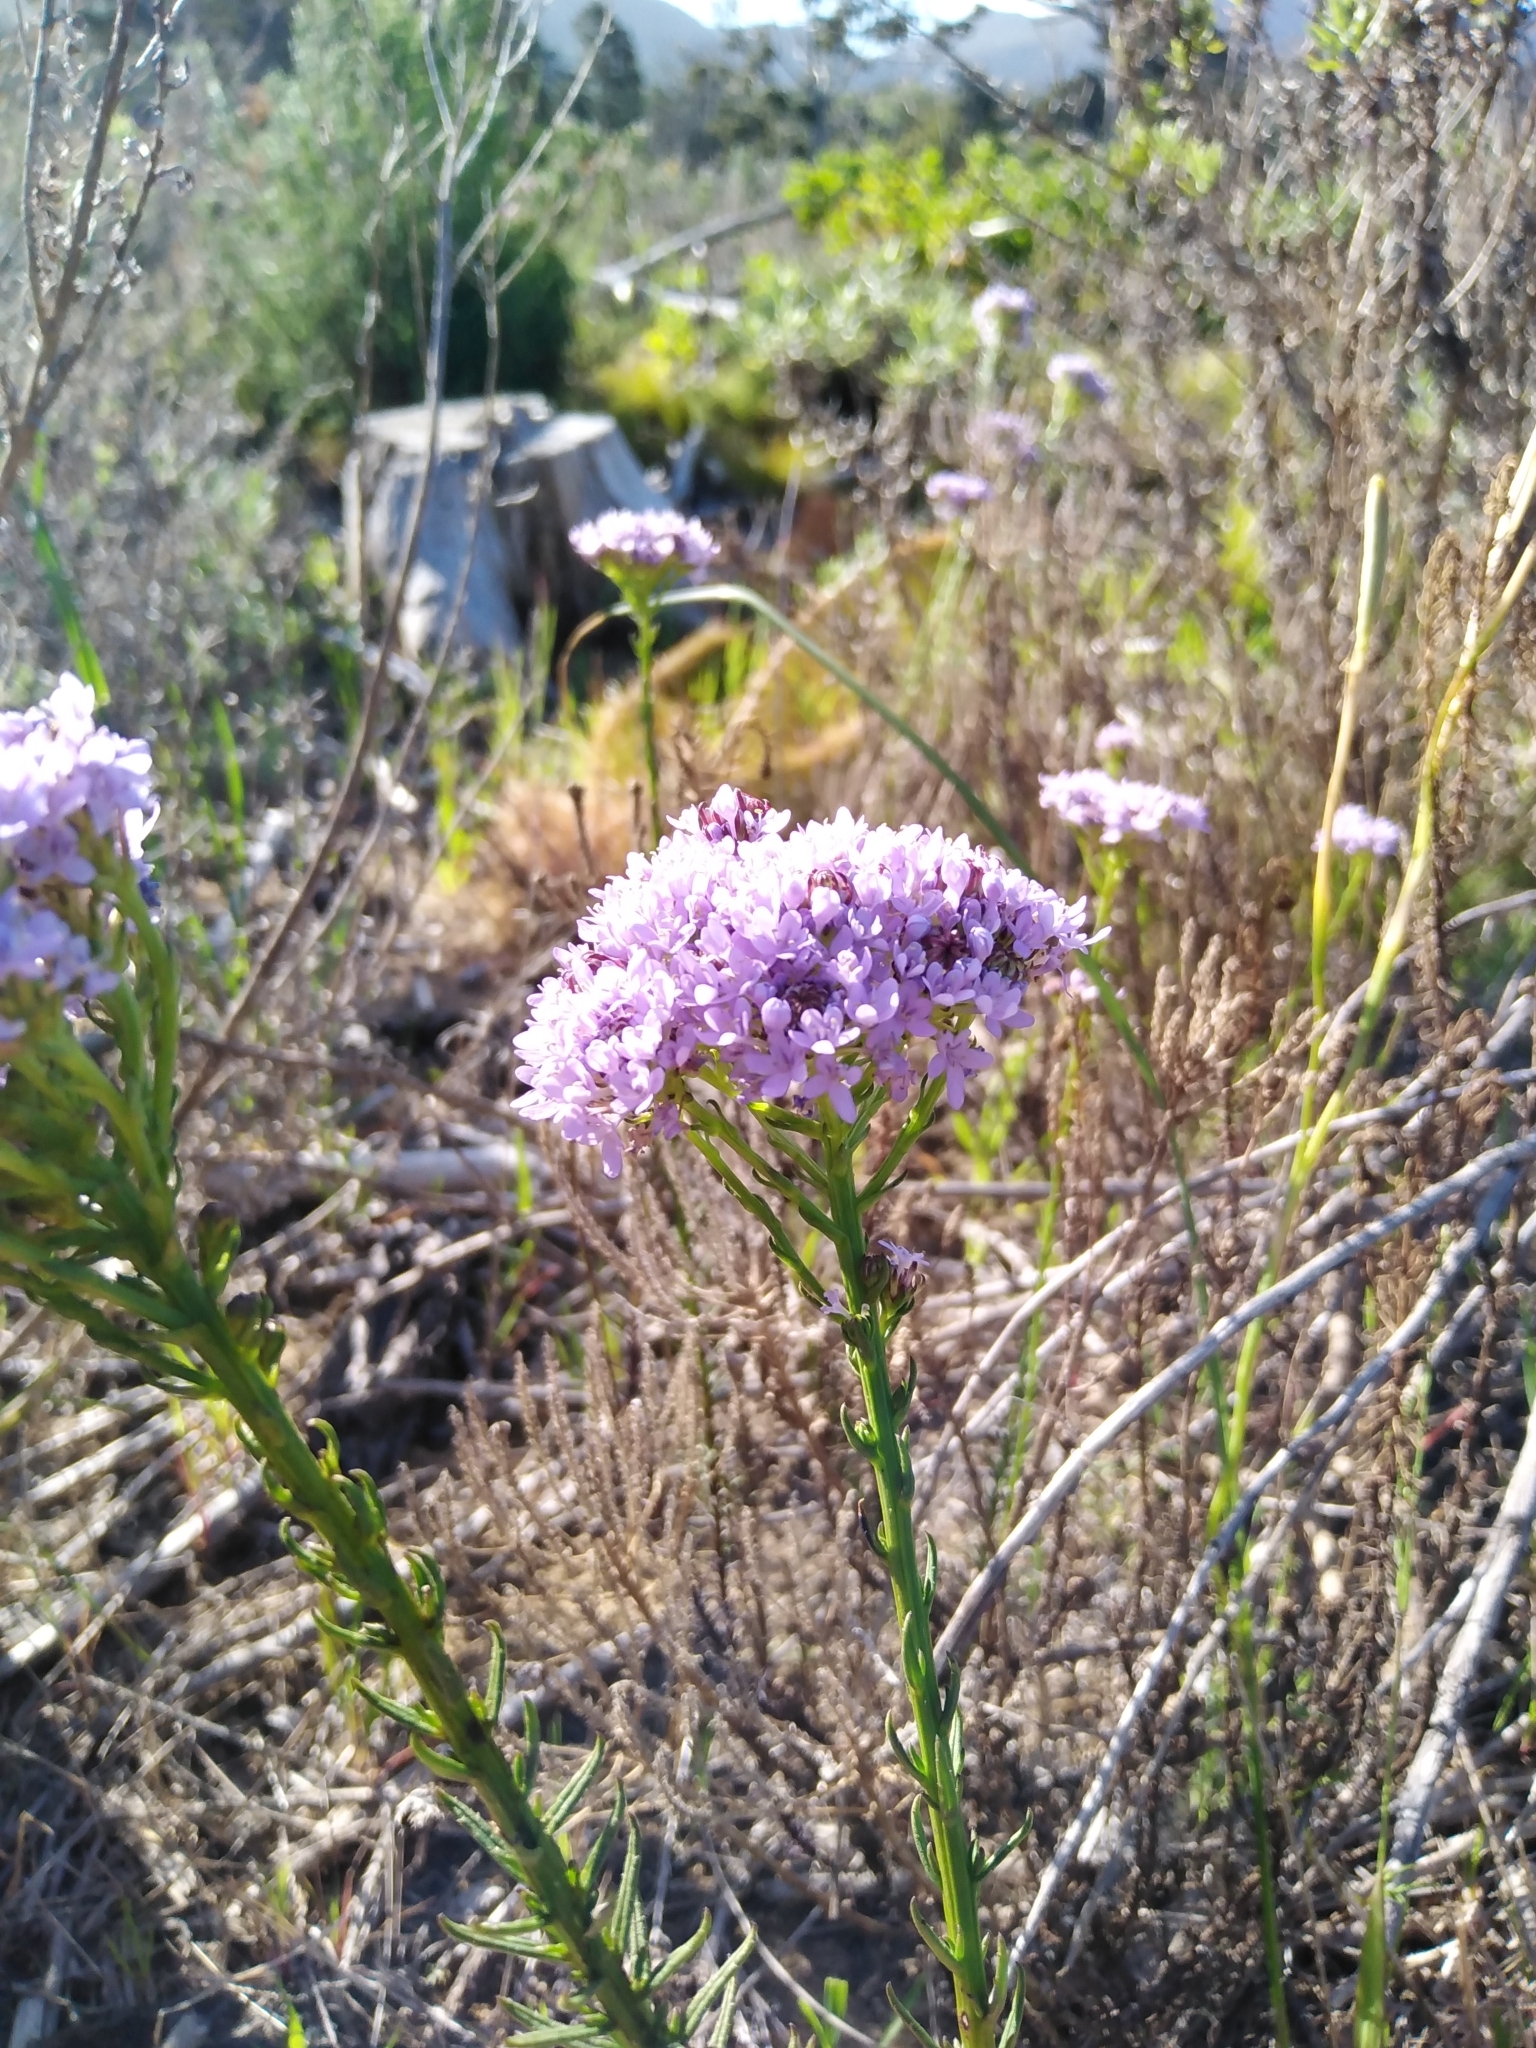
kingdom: Plantae
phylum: Tracheophyta
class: Magnoliopsida
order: Lamiales
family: Scrophulariaceae
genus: Pseudoselago
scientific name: Pseudoselago spuria
